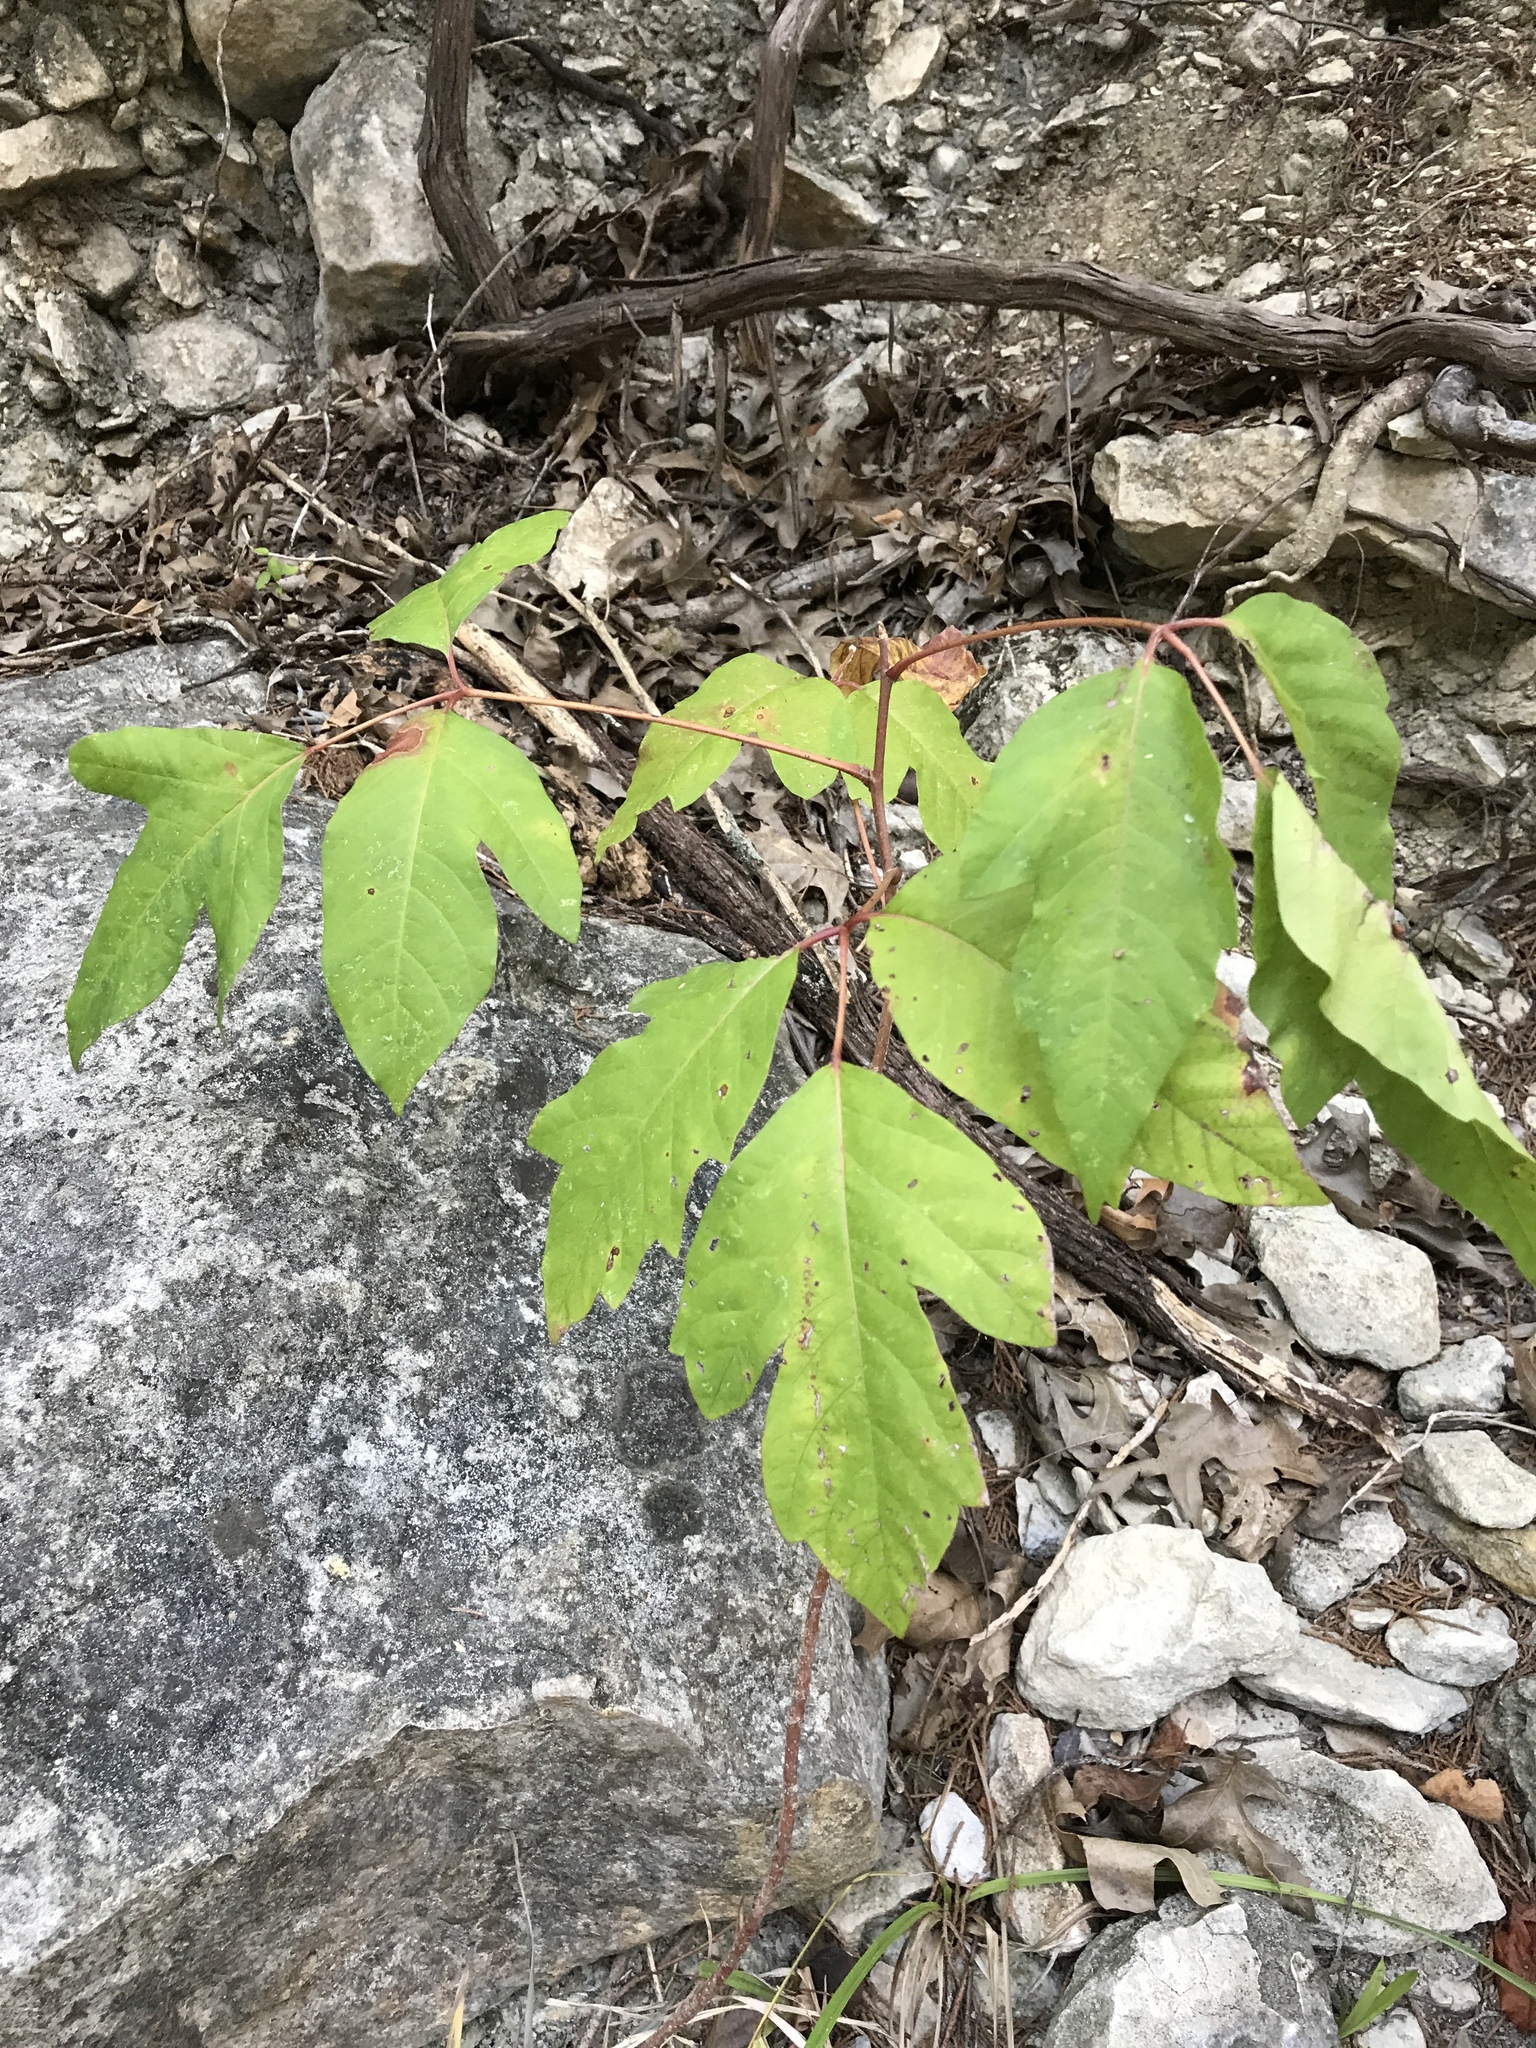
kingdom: Plantae
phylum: Tracheophyta
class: Magnoliopsida
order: Sapindales
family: Anacardiaceae
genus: Toxicodendron
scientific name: Toxicodendron radicans
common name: Poison ivy
